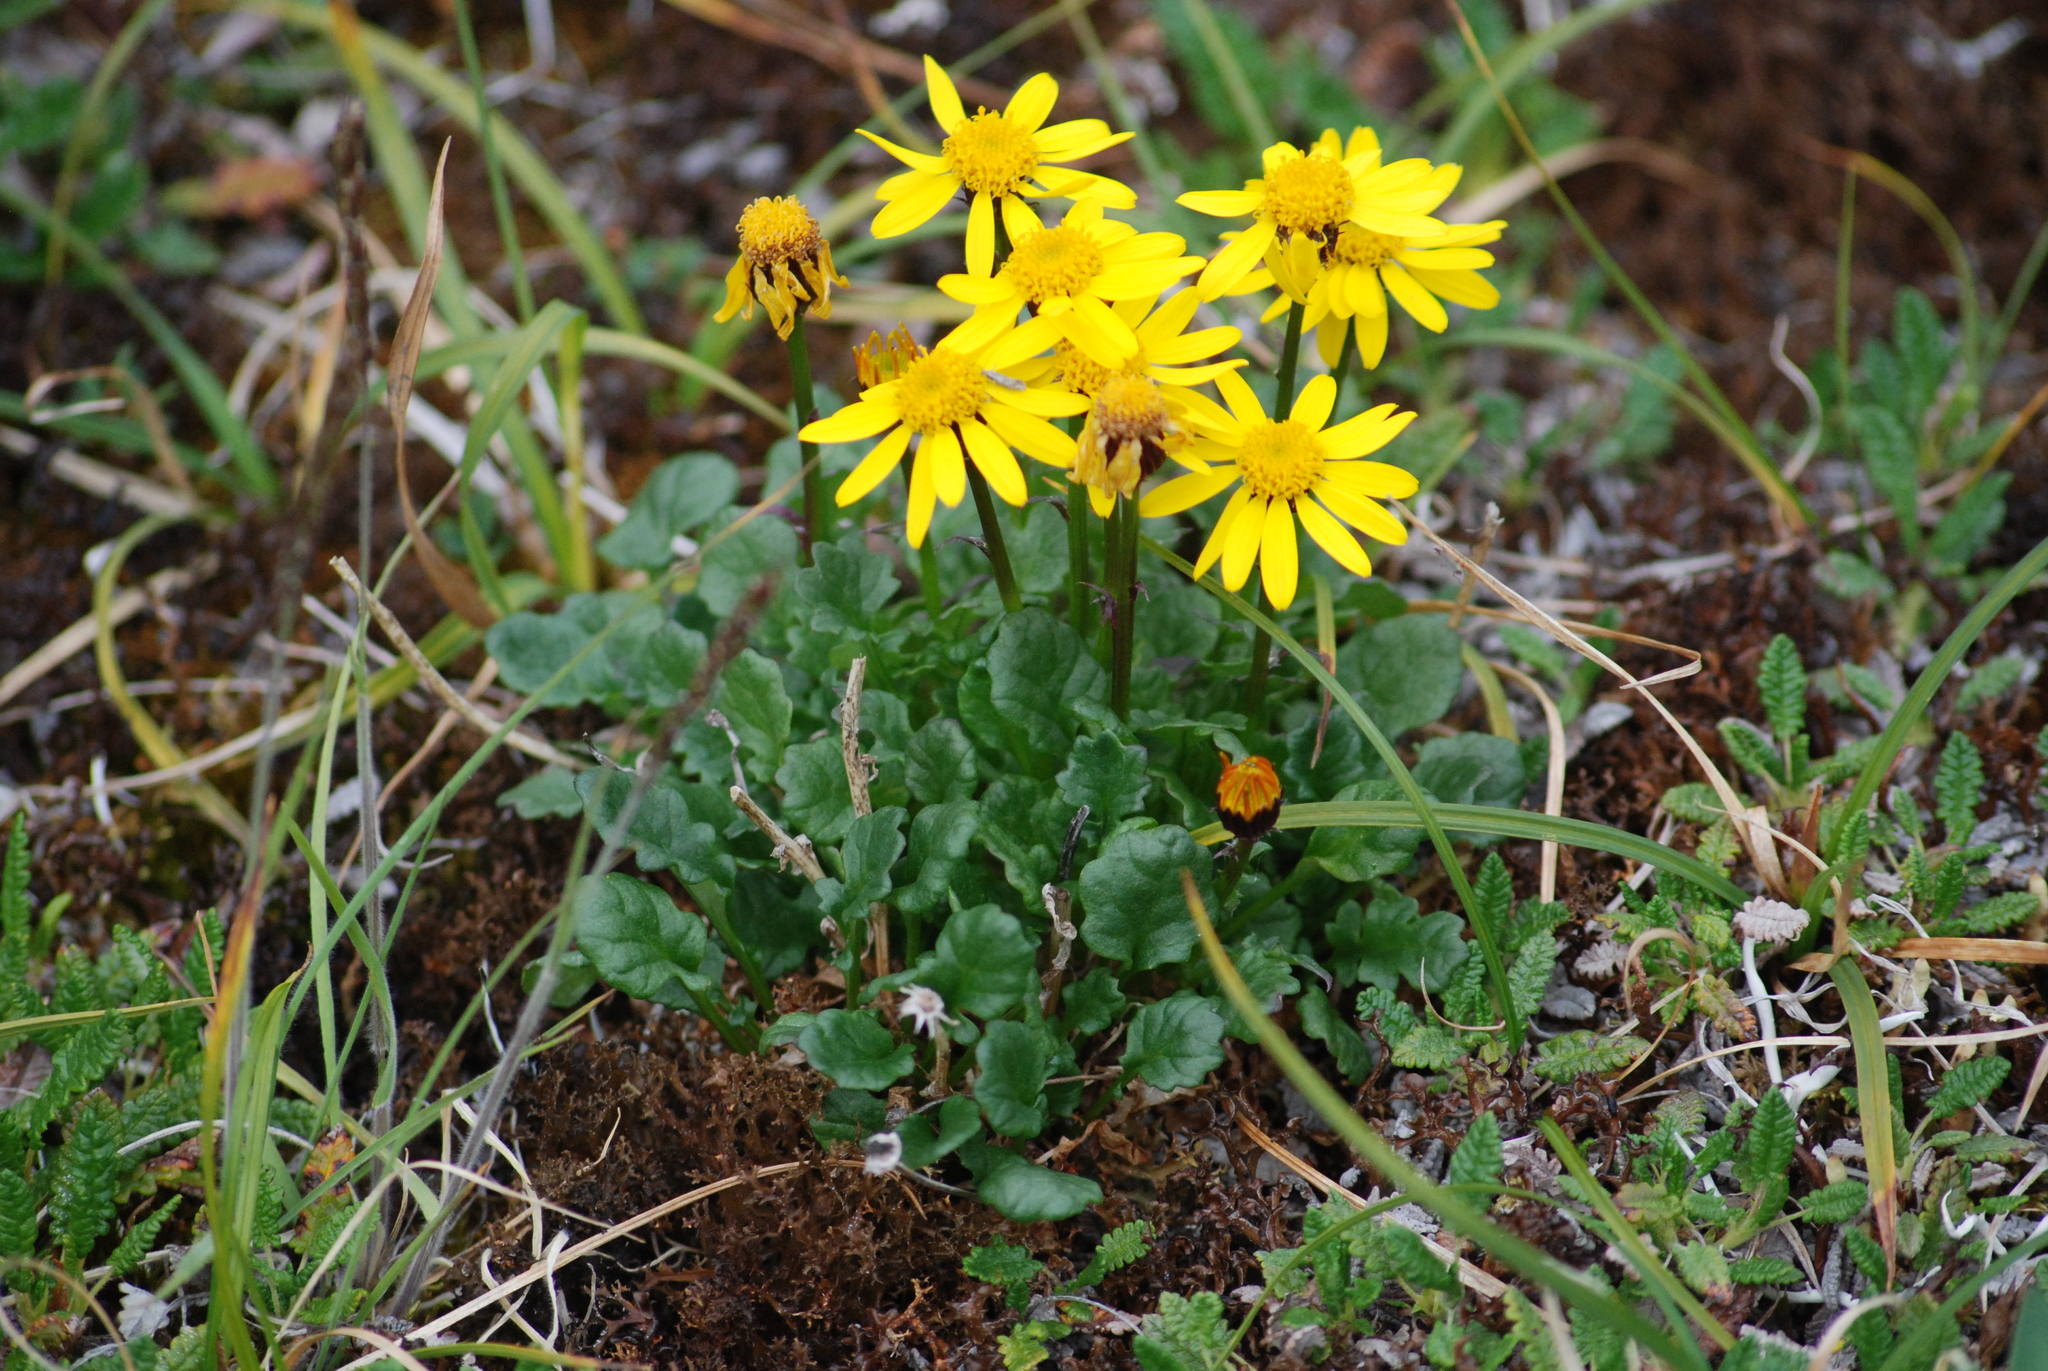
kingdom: Plantae
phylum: Tracheophyta
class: Magnoliopsida
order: Asterales
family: Asteraceae
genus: Packera
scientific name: Packera heterophylla
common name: Arctic butterweed
